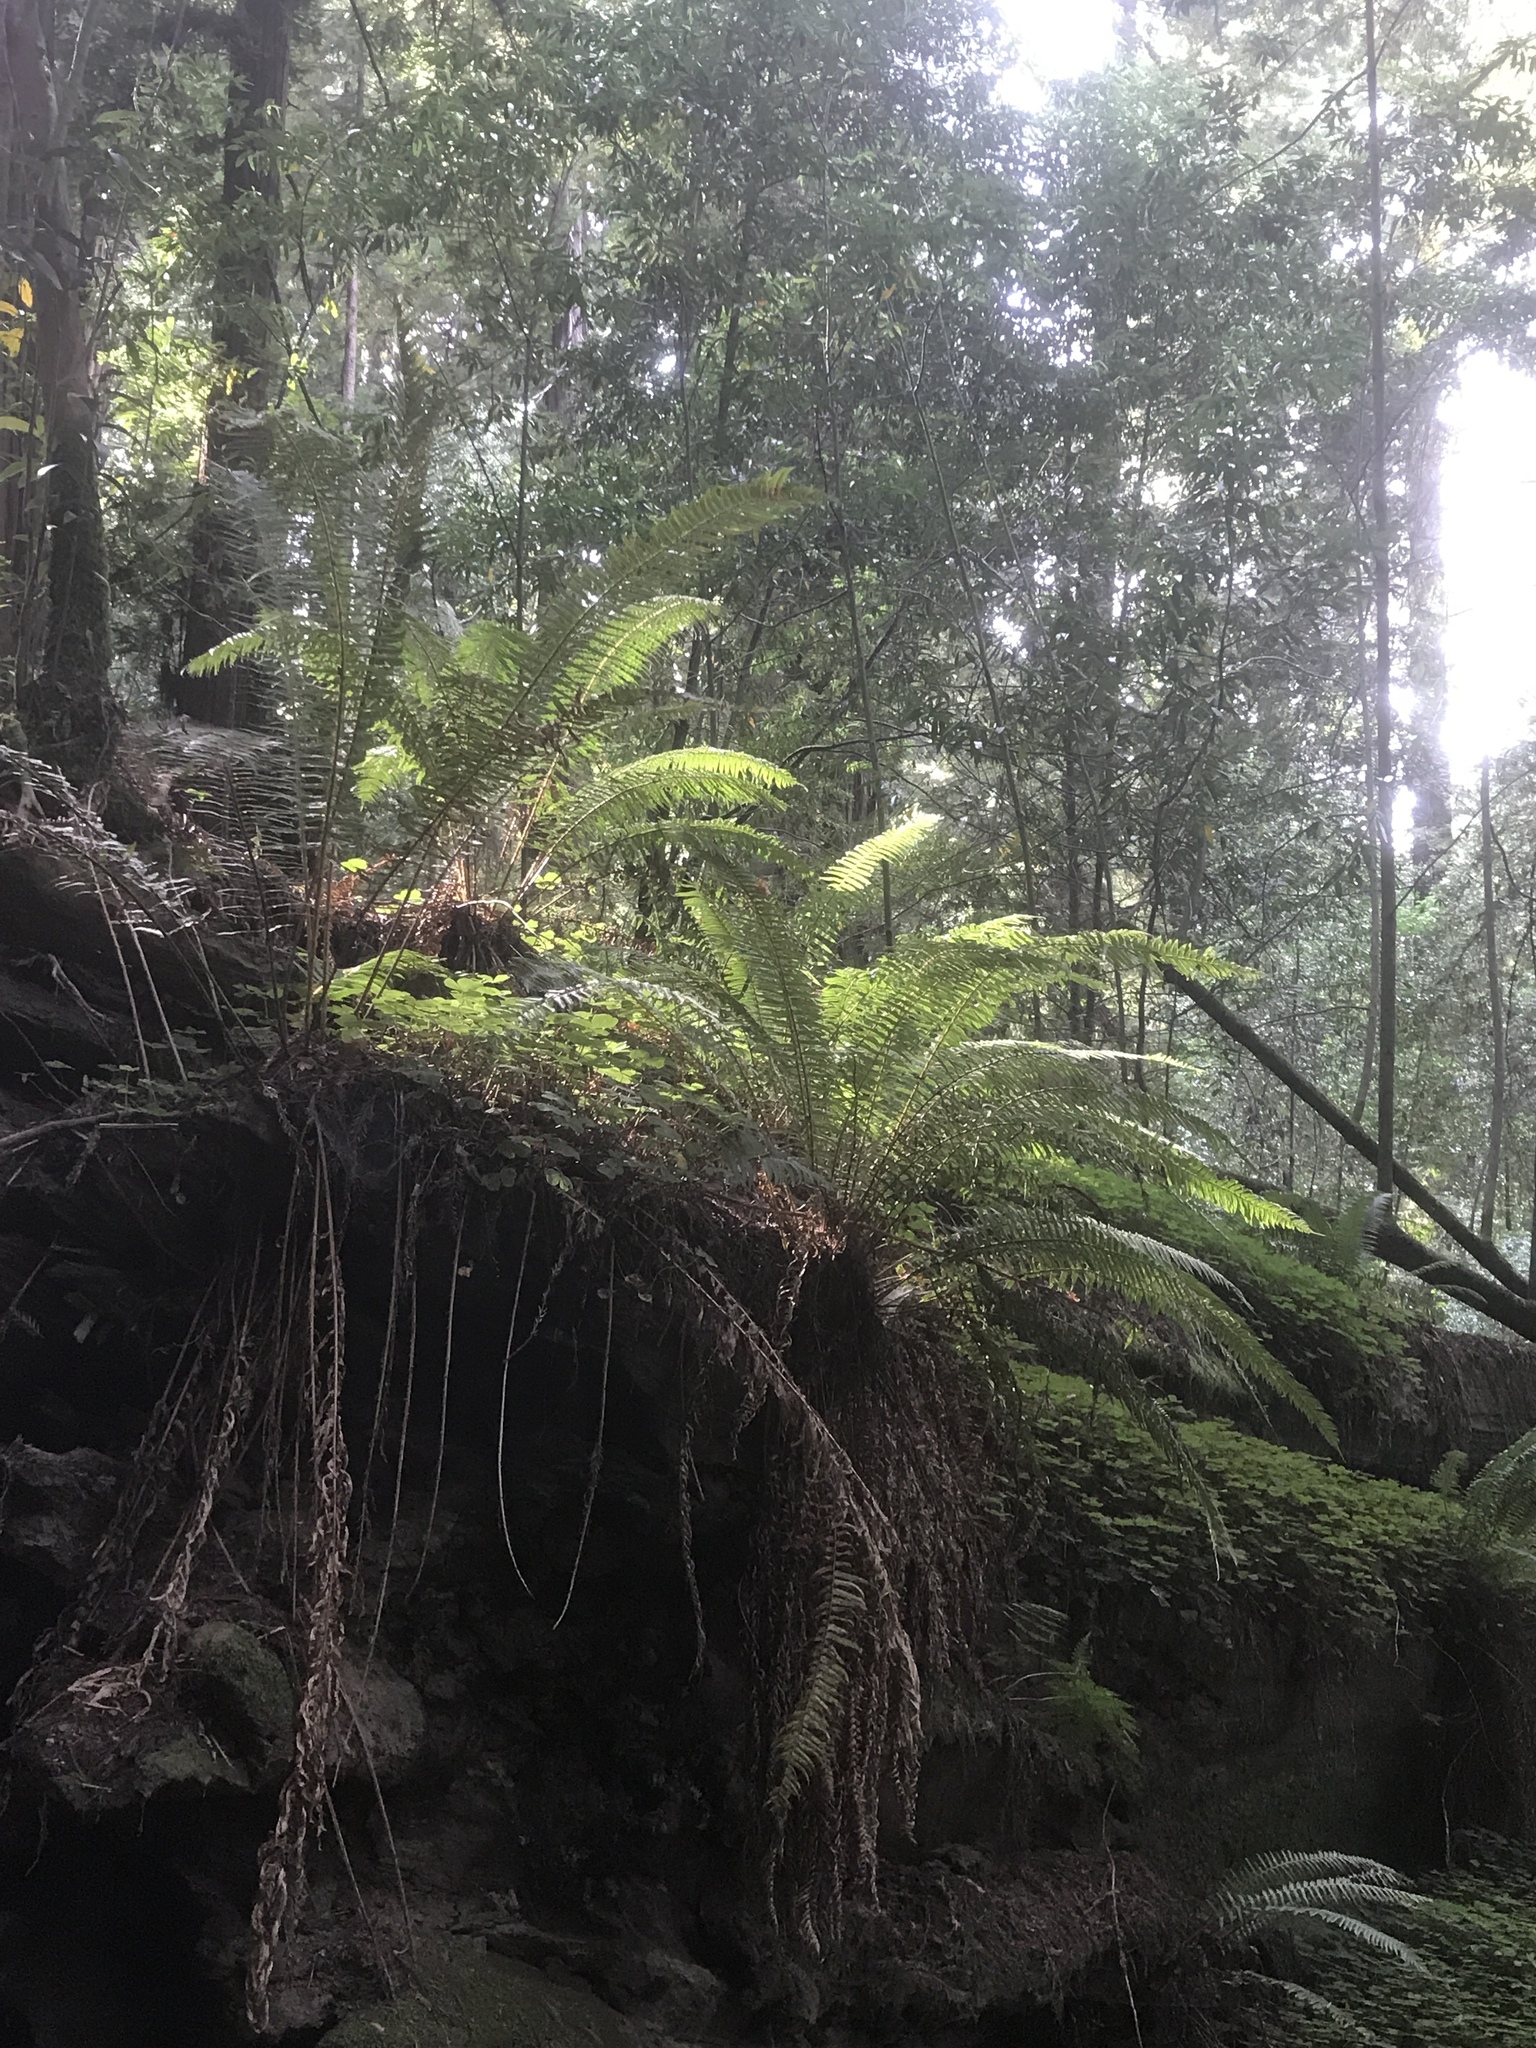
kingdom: Plantae
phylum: Tracheophyta
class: Polypodiopsida
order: Polypodiales
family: Dryopteridaceae
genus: Polystichum
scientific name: Polystichum munitum
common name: Western sword-fern
